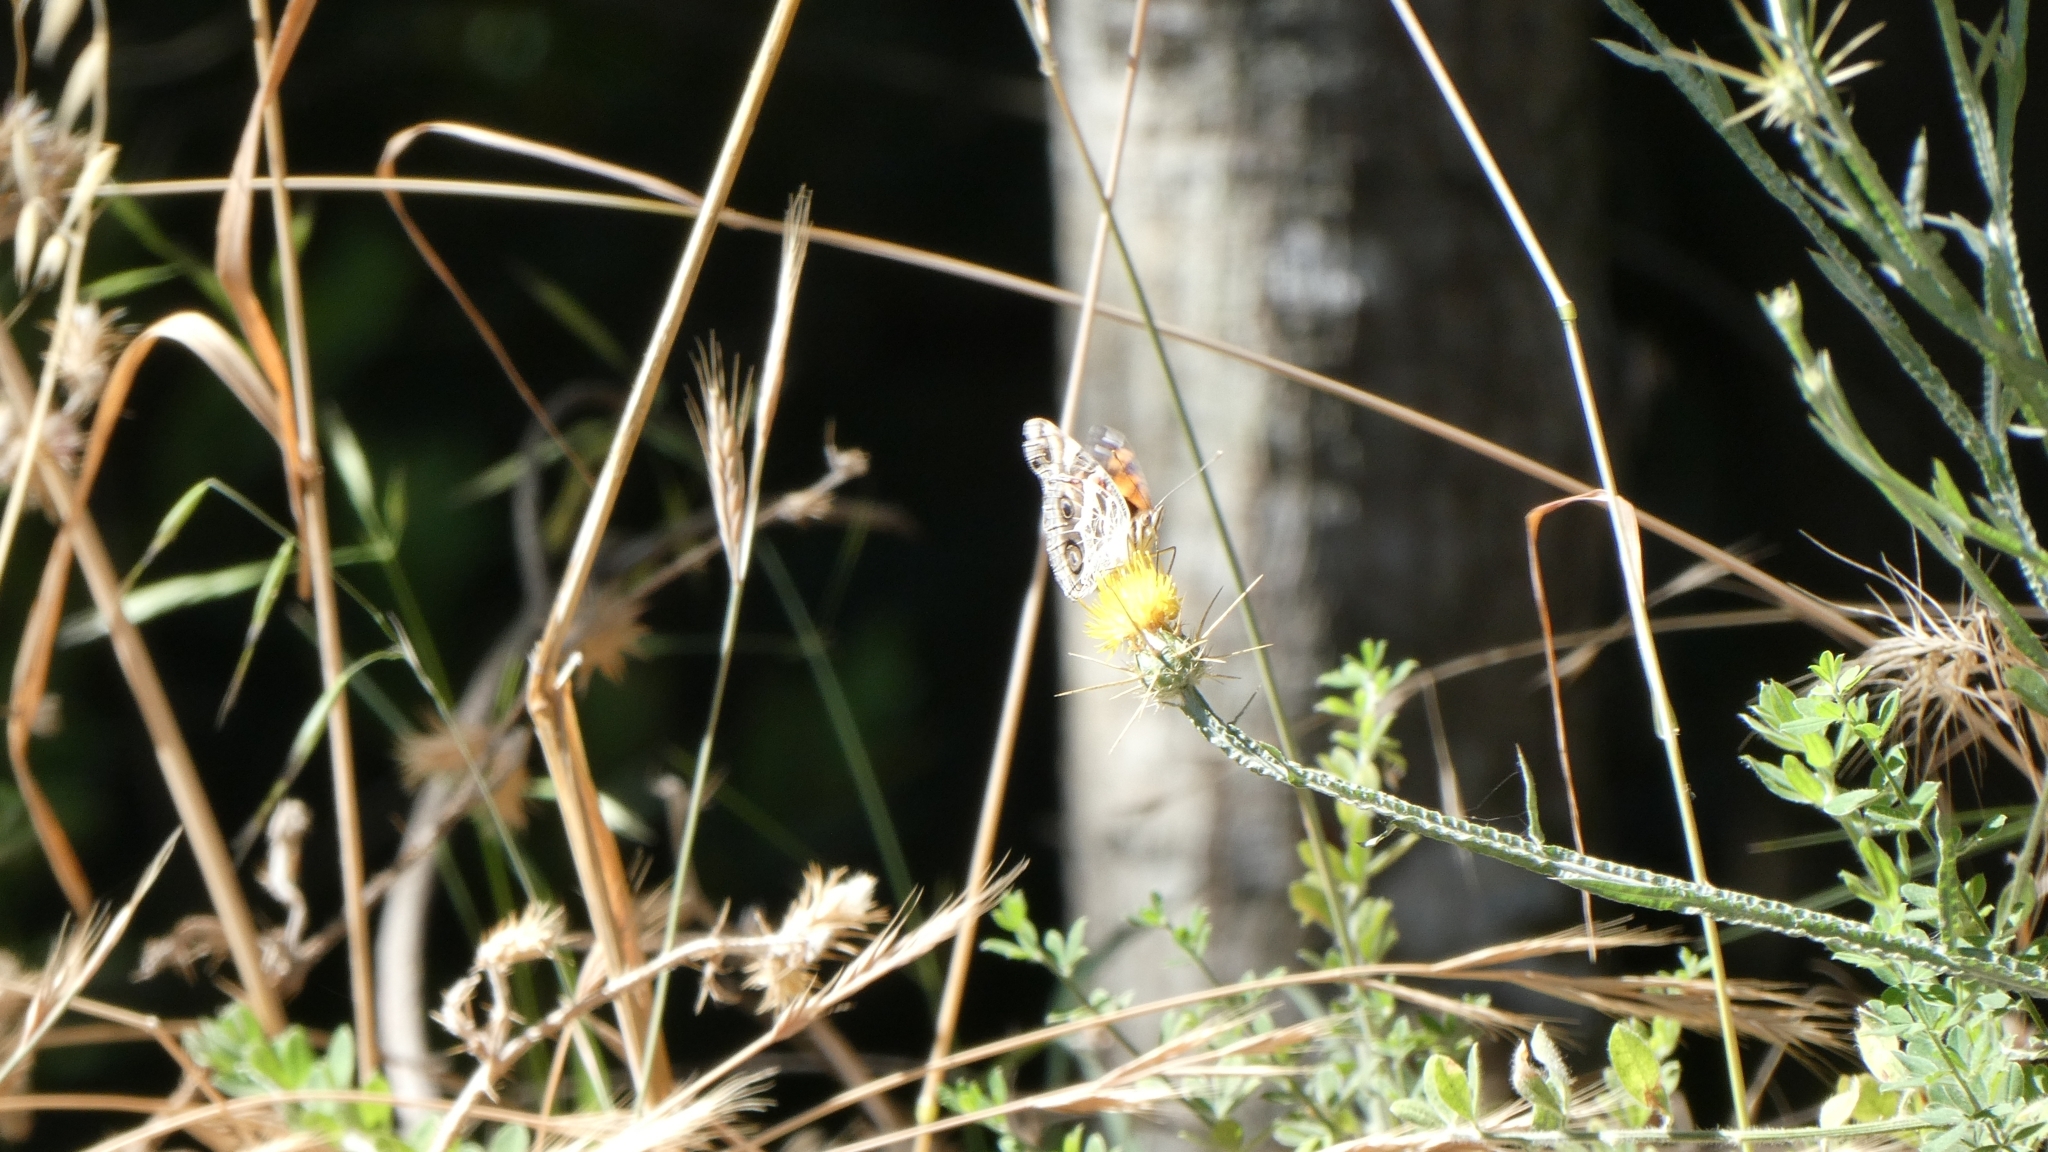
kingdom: Animalia
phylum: Arthropoda
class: Insecta
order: Lepidoptera
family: Nymphalidae
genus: Vanessa
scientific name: Vanessa virginiensis
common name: American lady
